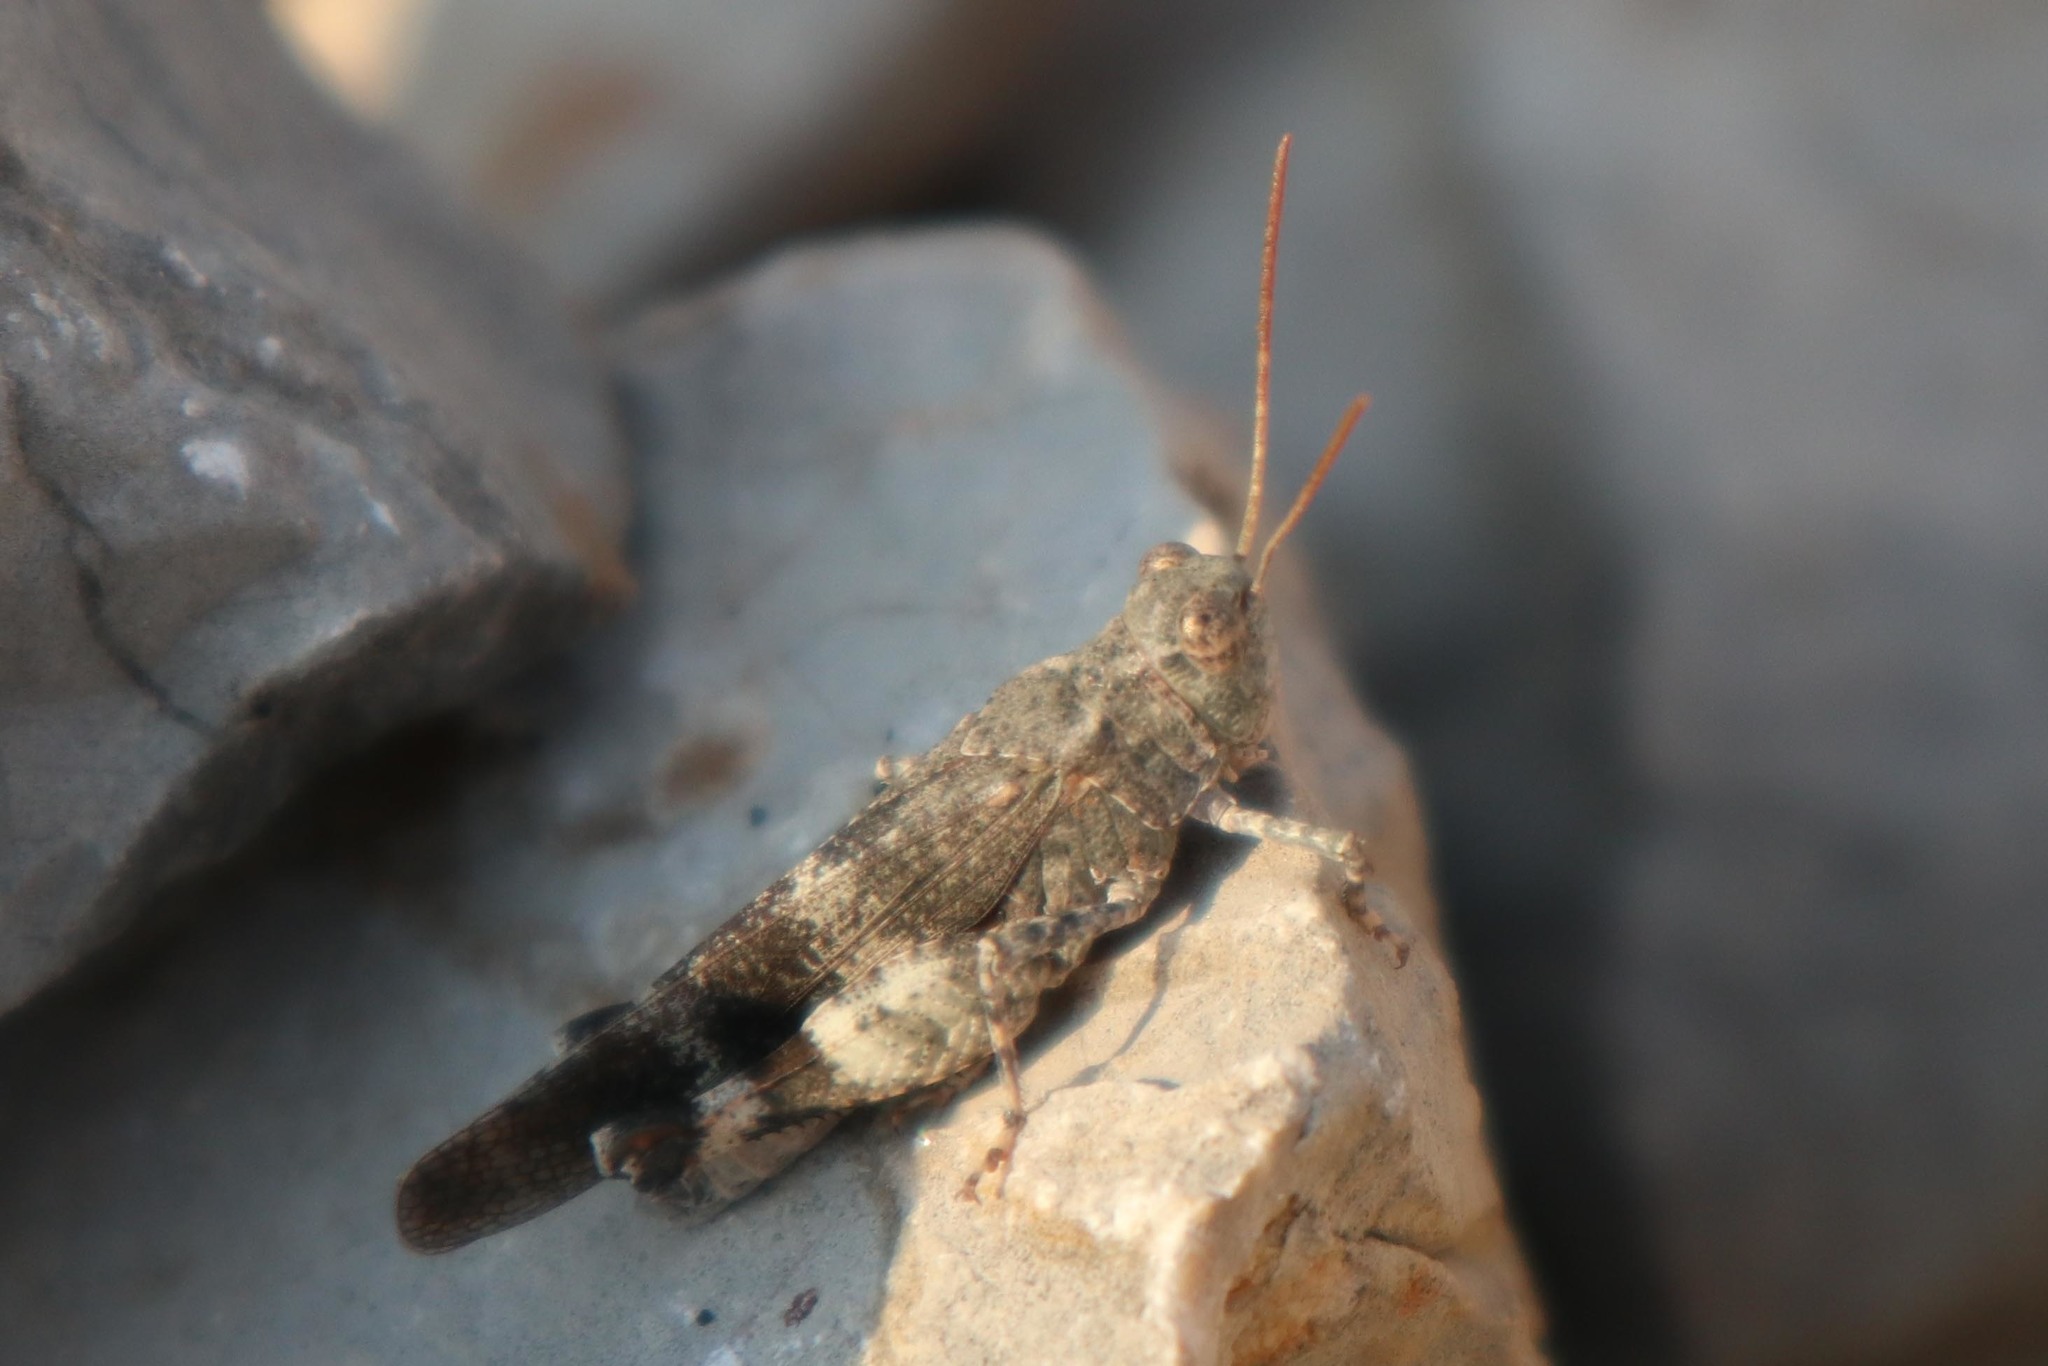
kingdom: Animalia
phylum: Arthropoda
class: Insecta
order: Orthoptera
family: Acrididae
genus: Oedipoda
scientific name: Oedipoda germanica
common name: Red band-winged grasshopper
